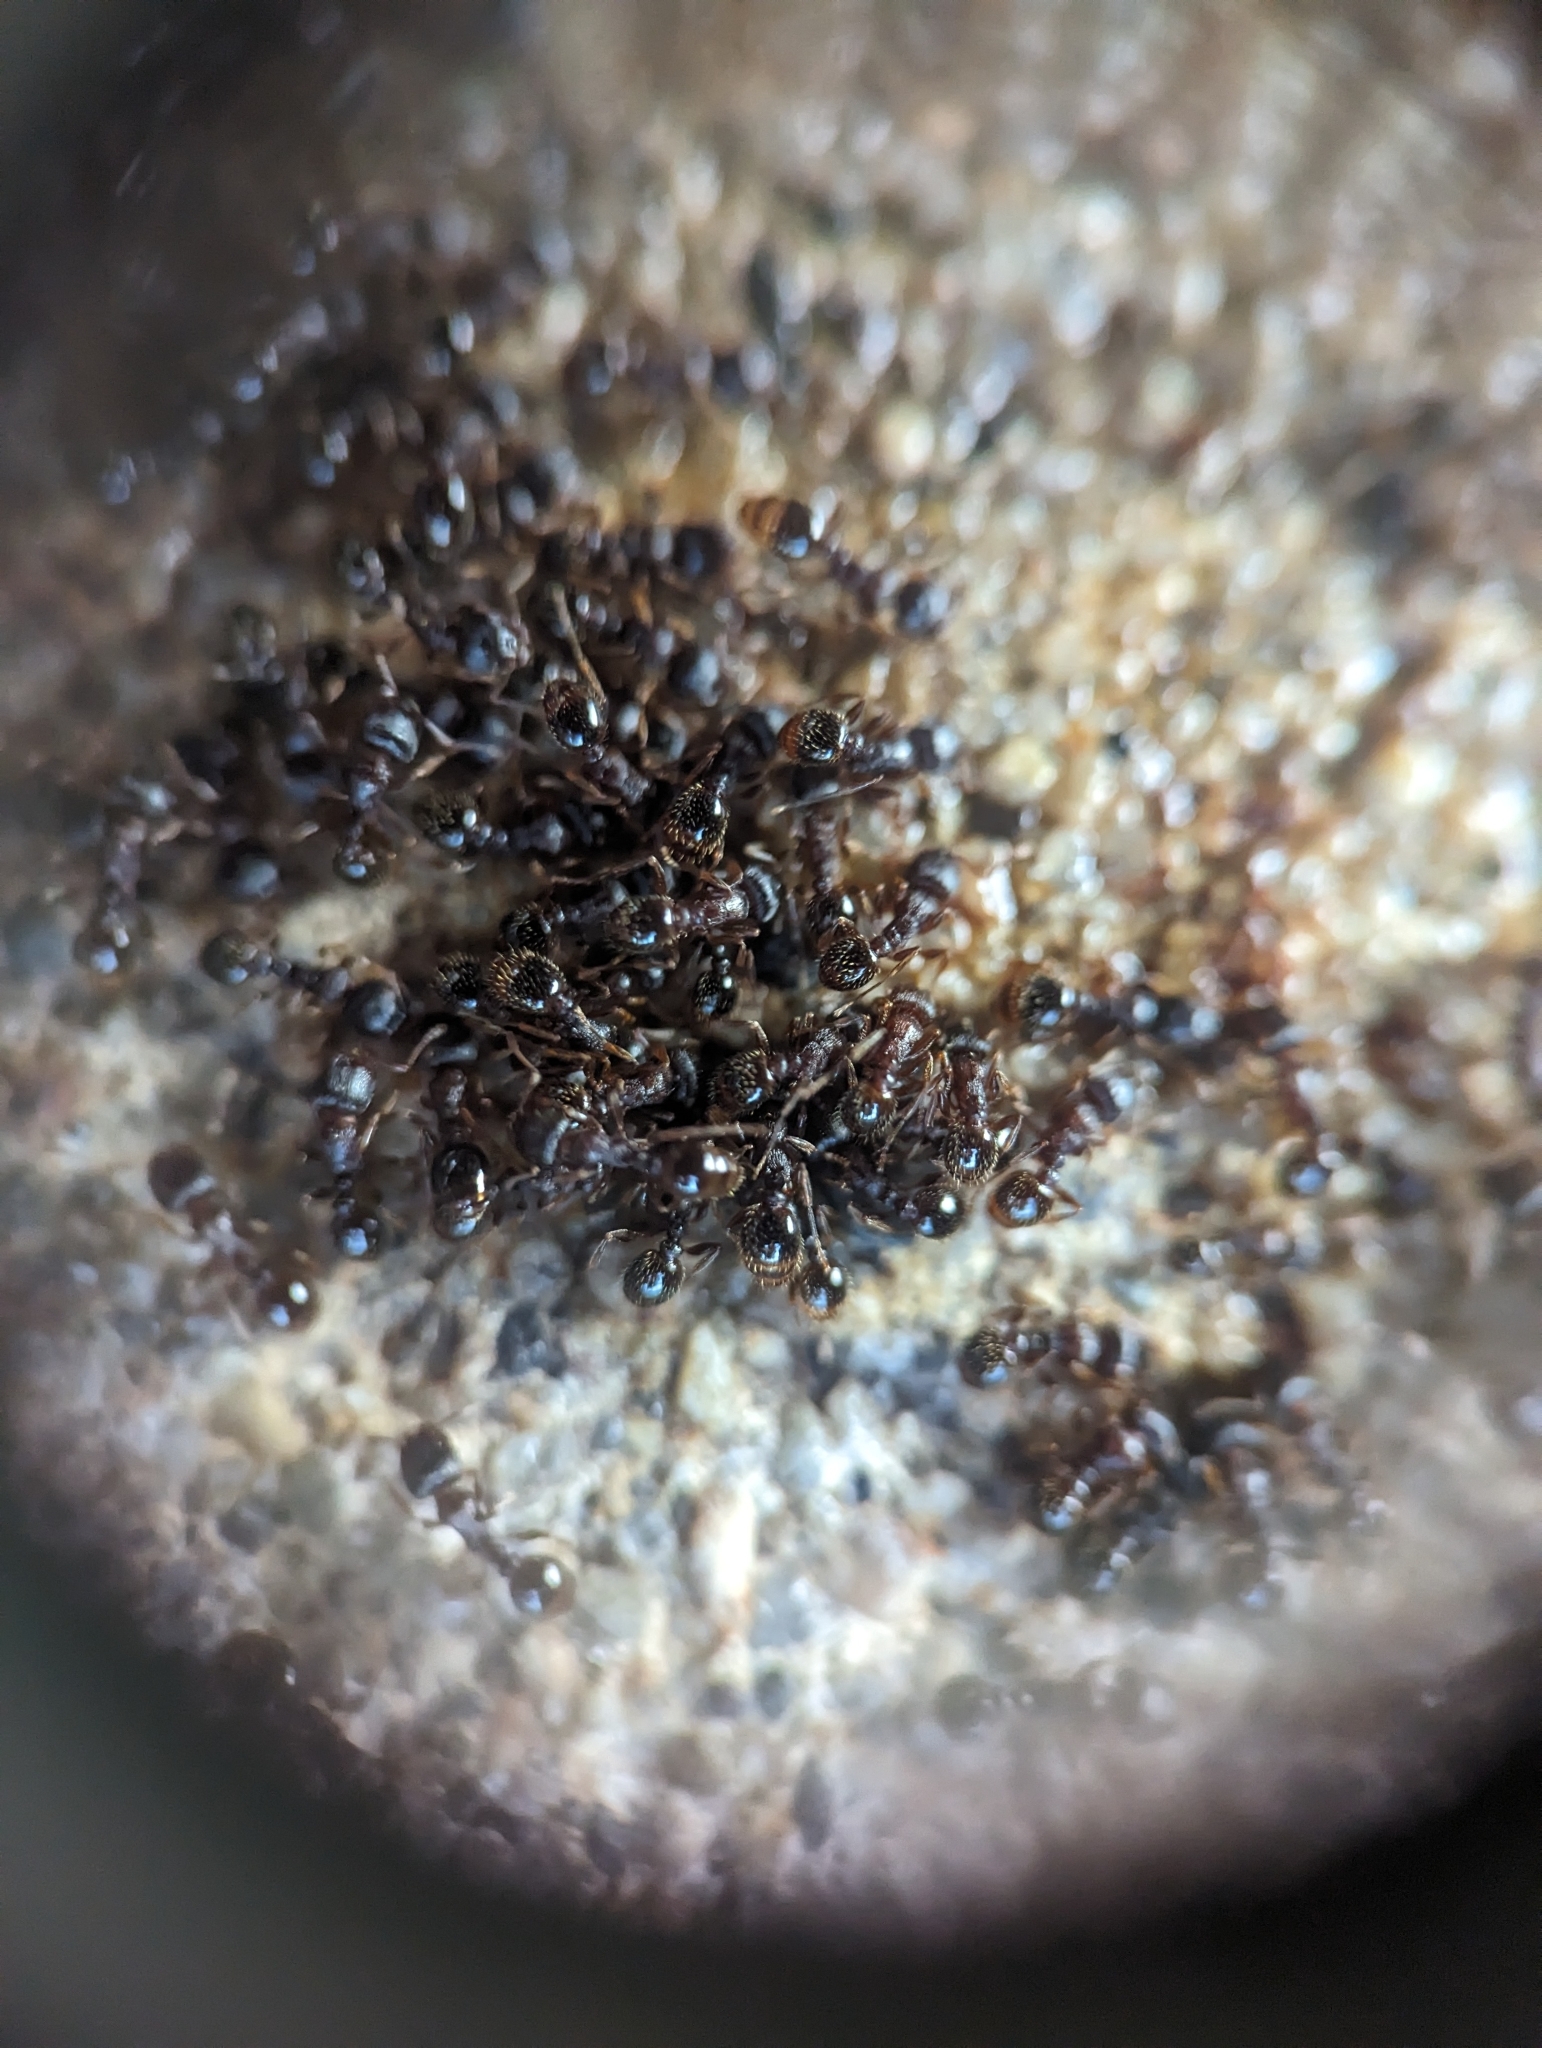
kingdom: Animalia
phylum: Arthropoda
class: Insecta
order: Hymenoptera
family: Formicidae
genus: Tetramorium
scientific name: Tetramorium immigrans
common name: Pavement ant
